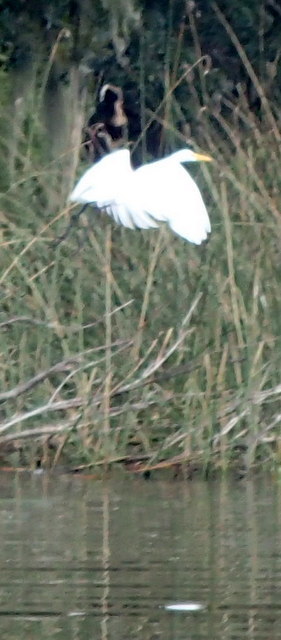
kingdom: Animalia
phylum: Chordata
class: Aves
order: Pelecaniformes
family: Ardeidae
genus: Ardea
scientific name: Ardea alba
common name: Great egret
